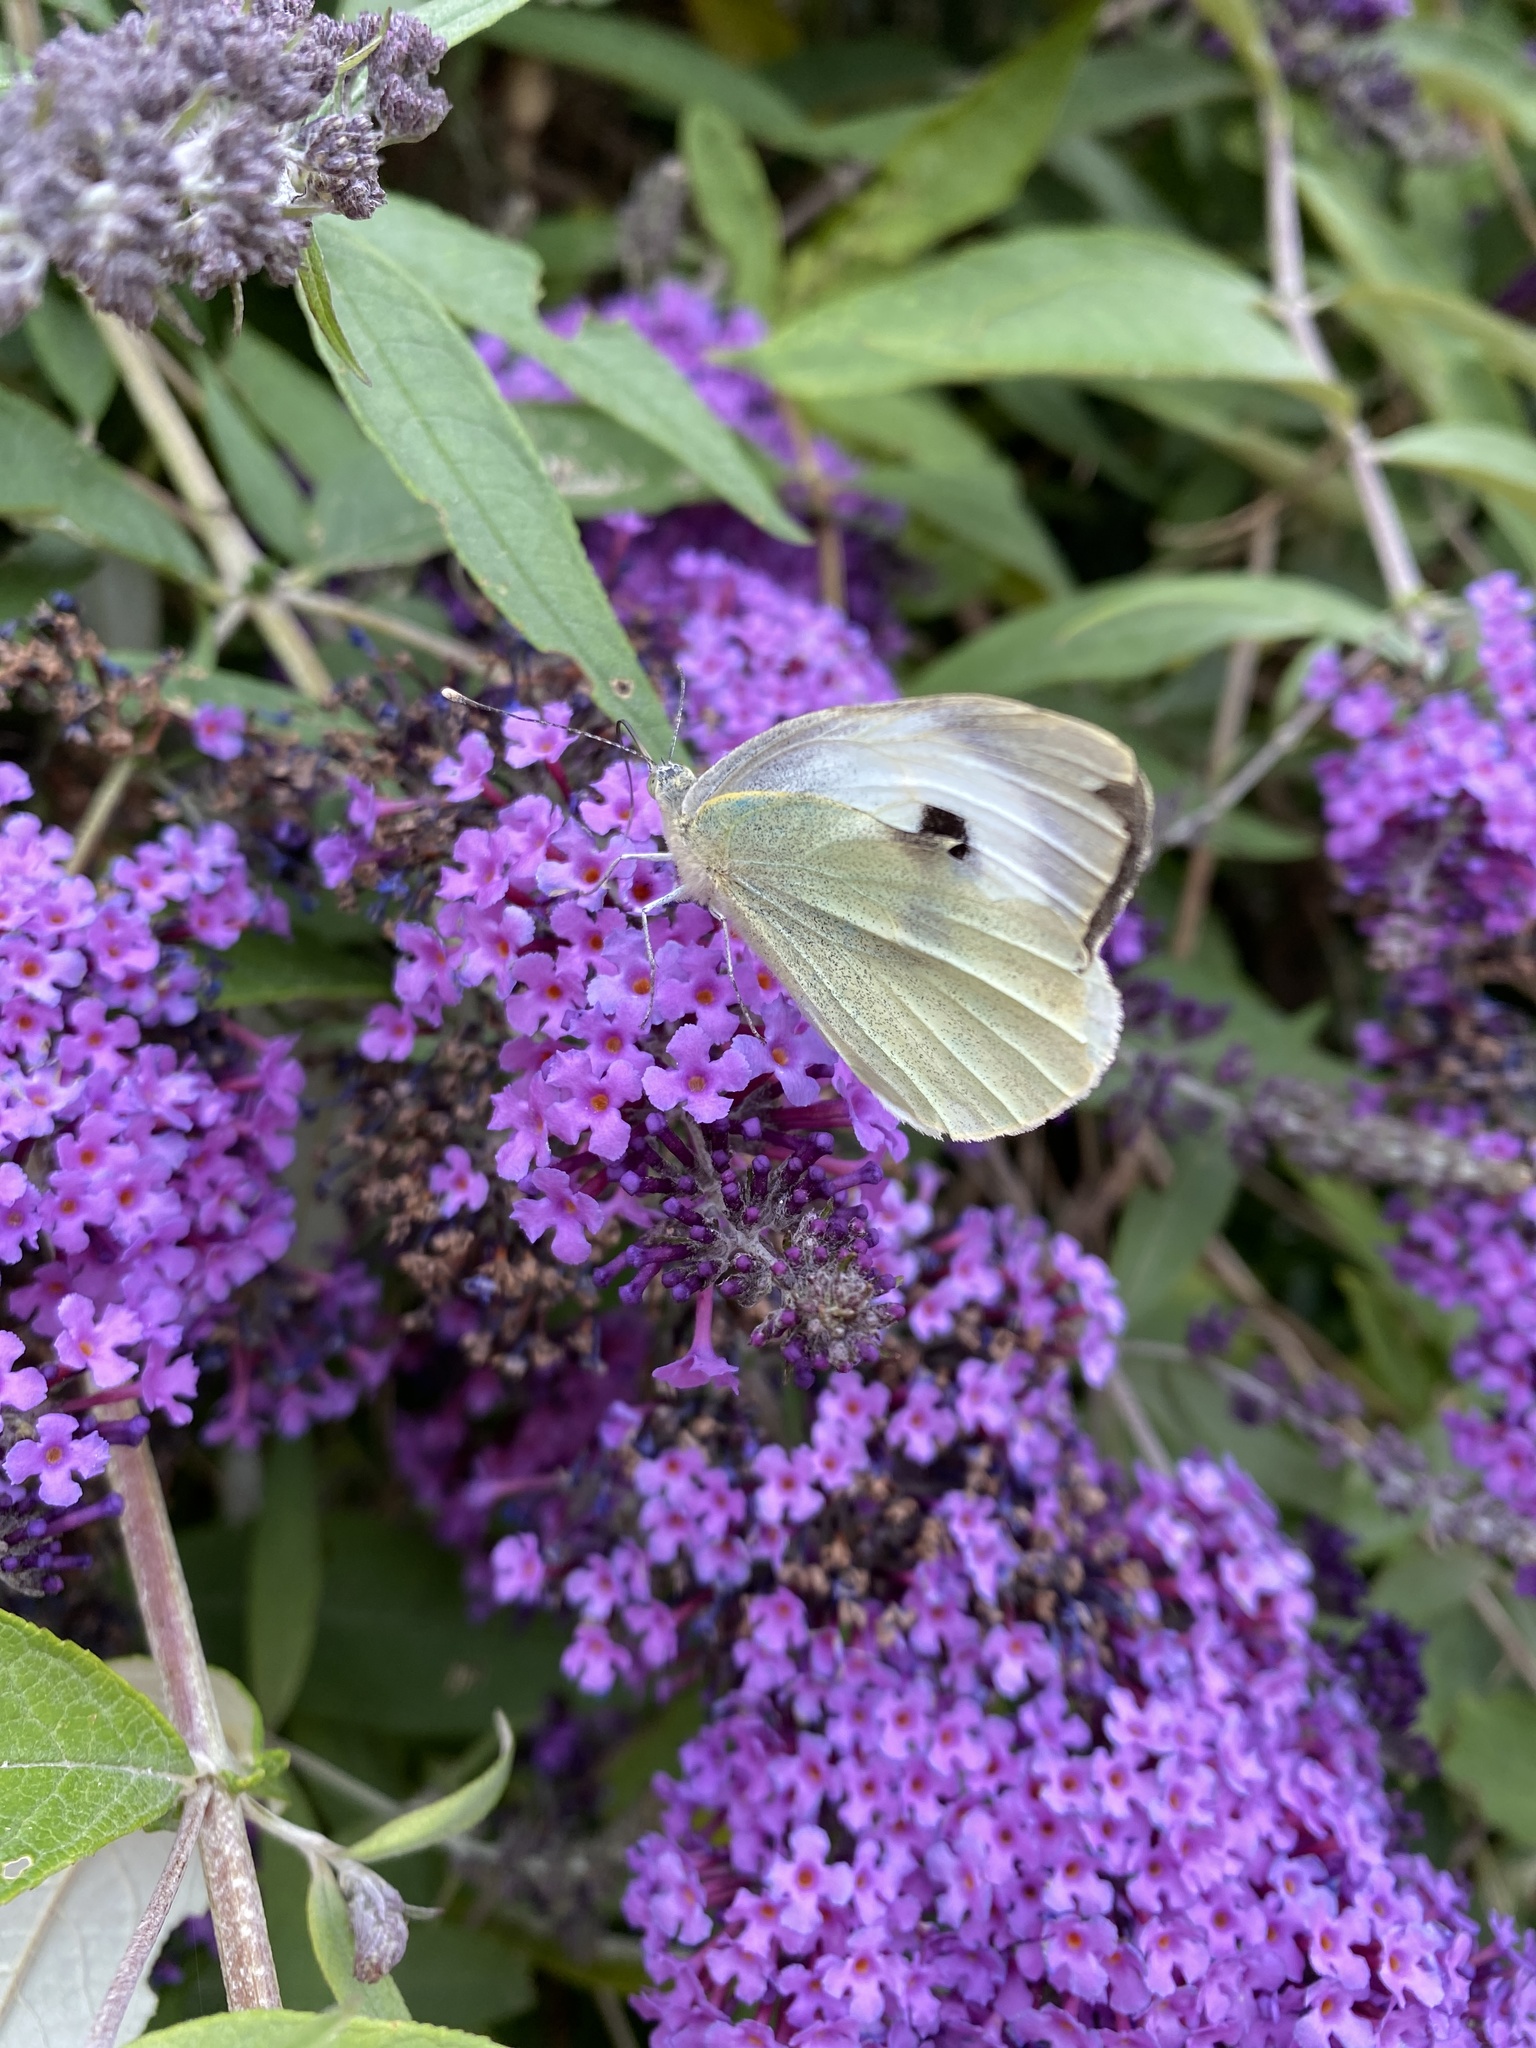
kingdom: Animalia
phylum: Arthropoda
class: Insecta
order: Lepidoptera
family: Pieridae
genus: Pieris
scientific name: Pieris brassicae
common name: Large white
